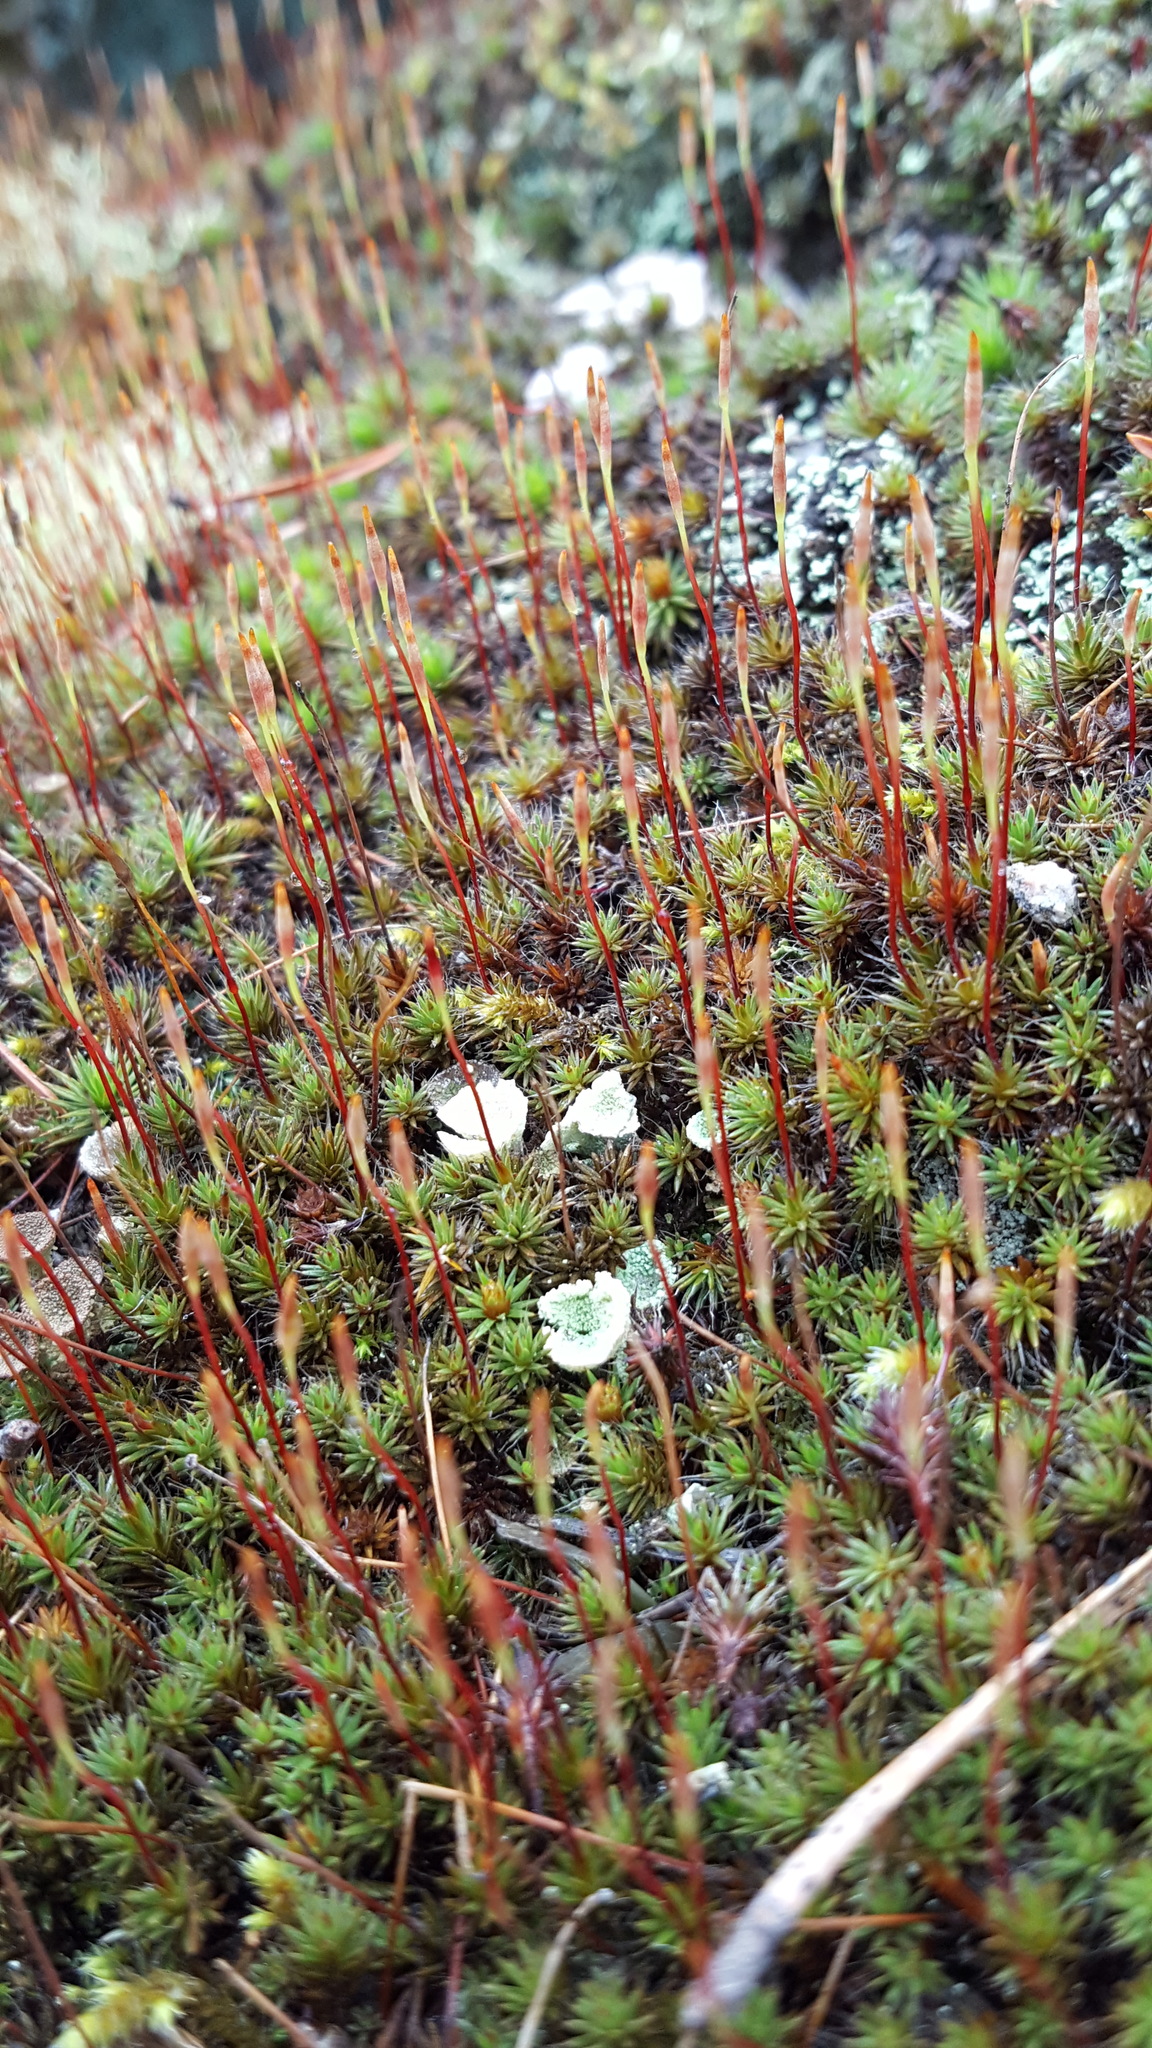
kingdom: Plantae
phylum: Bryophyta
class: Polytrichopsida
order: Polytrichales
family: Polytrichaceae
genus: Polytrichum
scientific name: Polytrichum piliferum
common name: Bristly haircap
